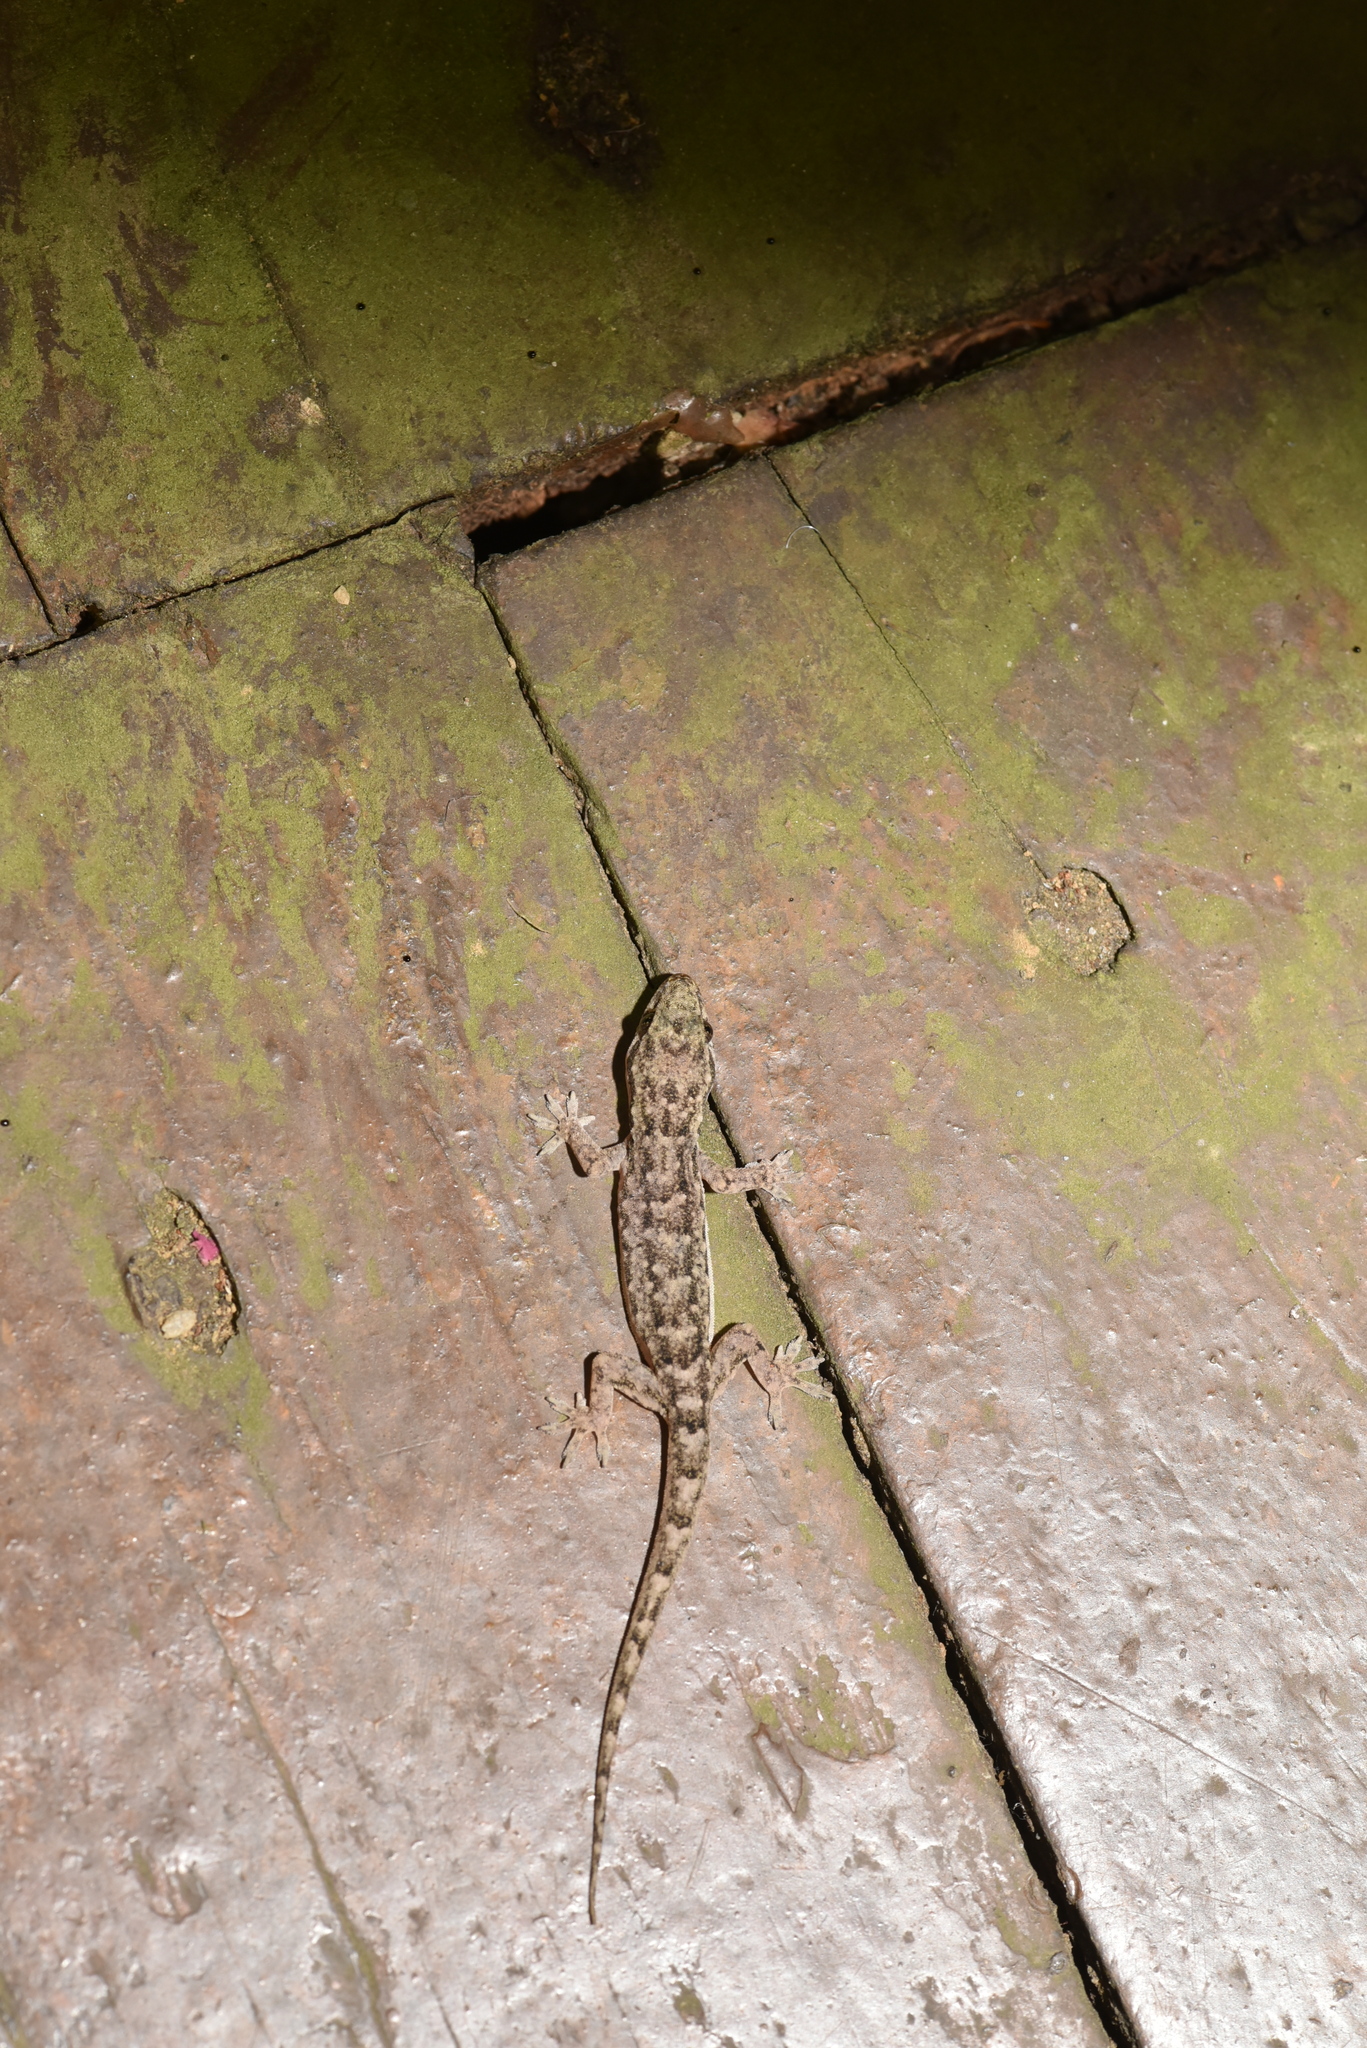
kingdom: Animalia
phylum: Chordata
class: Squamata
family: Gekkonidae
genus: Hemidactylus
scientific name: Hemidactylus bowringii
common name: Oriental leaf-toed gecko
